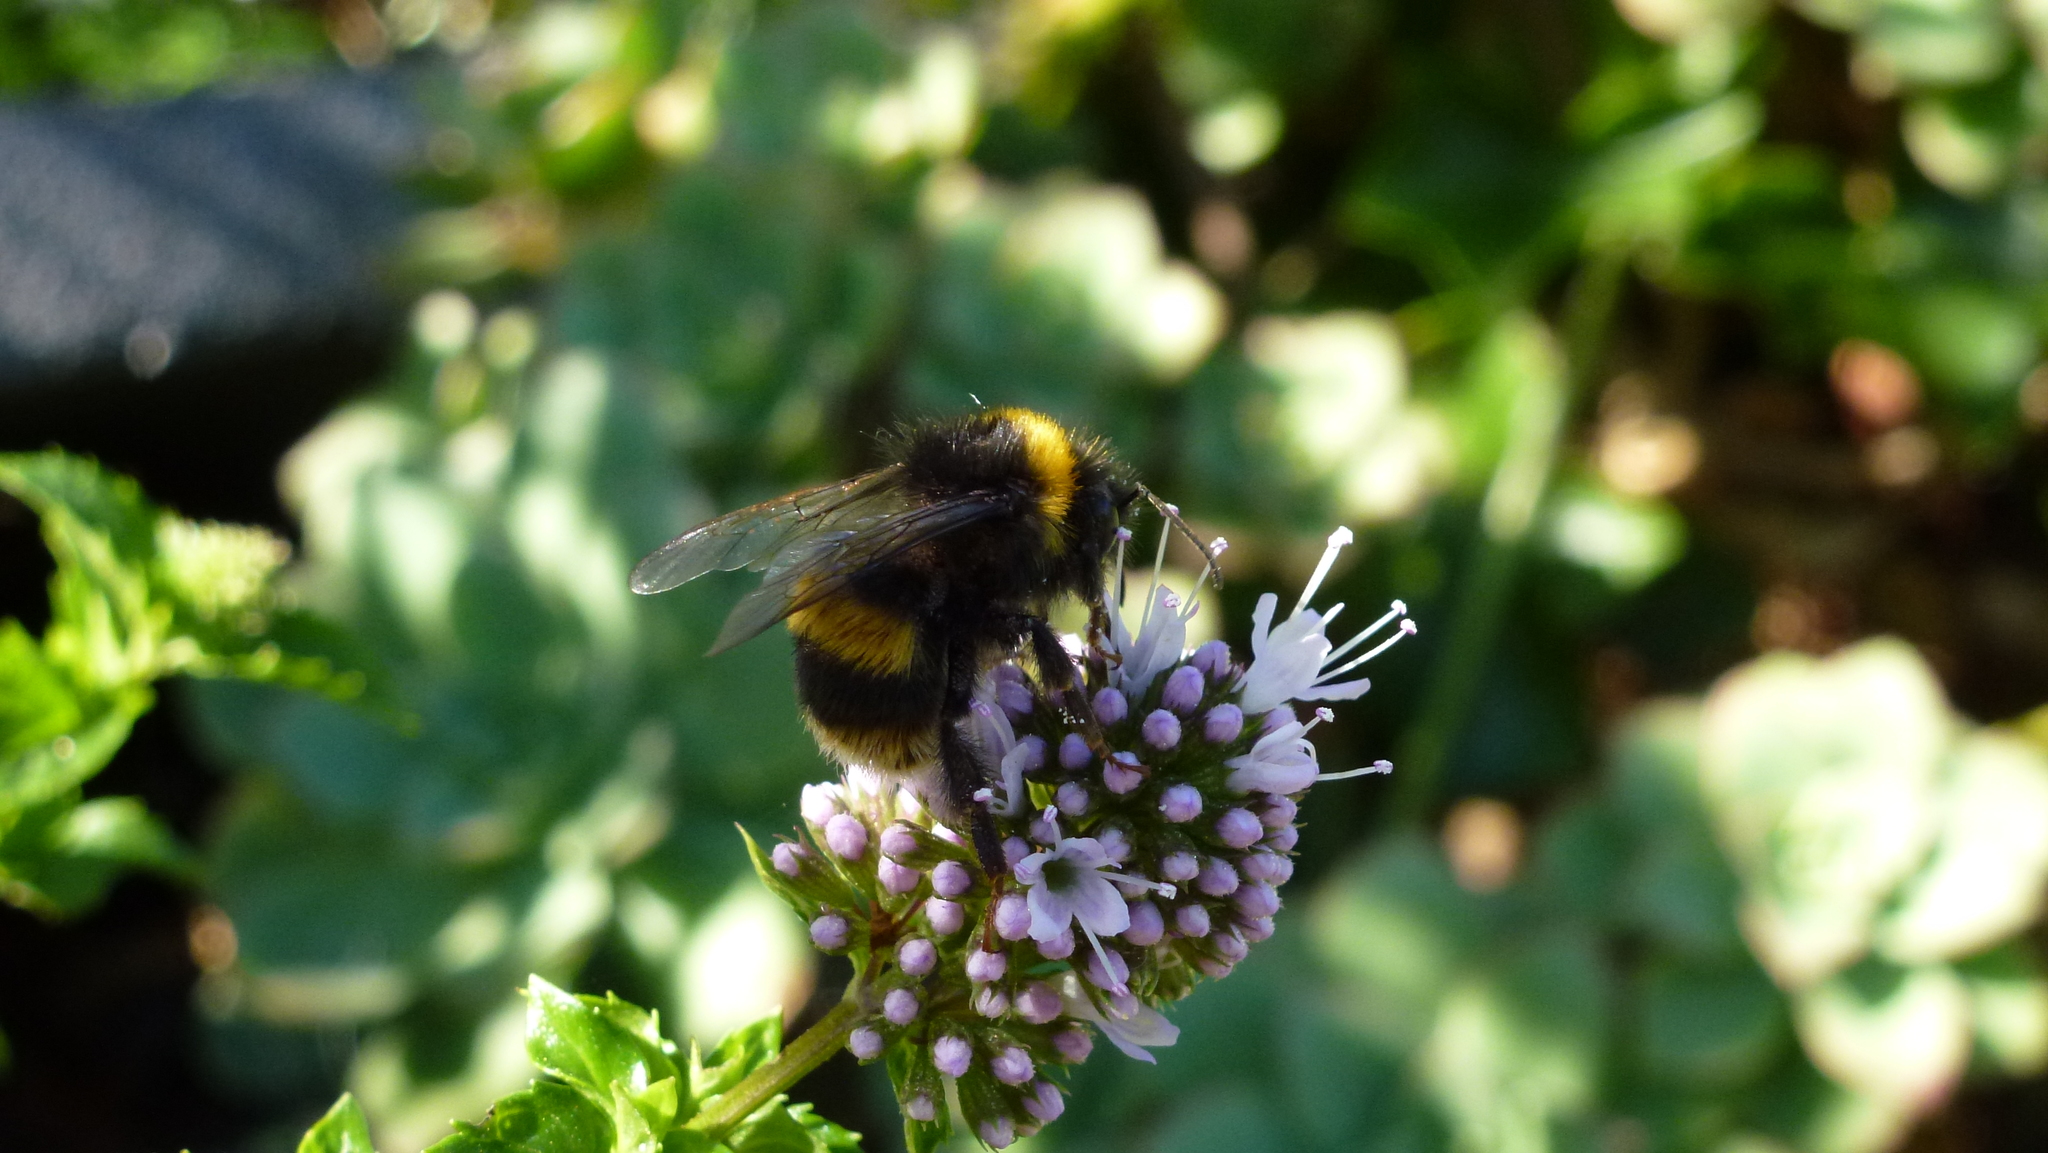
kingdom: Animalia
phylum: Arthropoda
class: Insecta
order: Hymenoptera
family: Apidae
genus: Bombus
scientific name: Bombus terrestris
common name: Buff-tailed bumblebee
